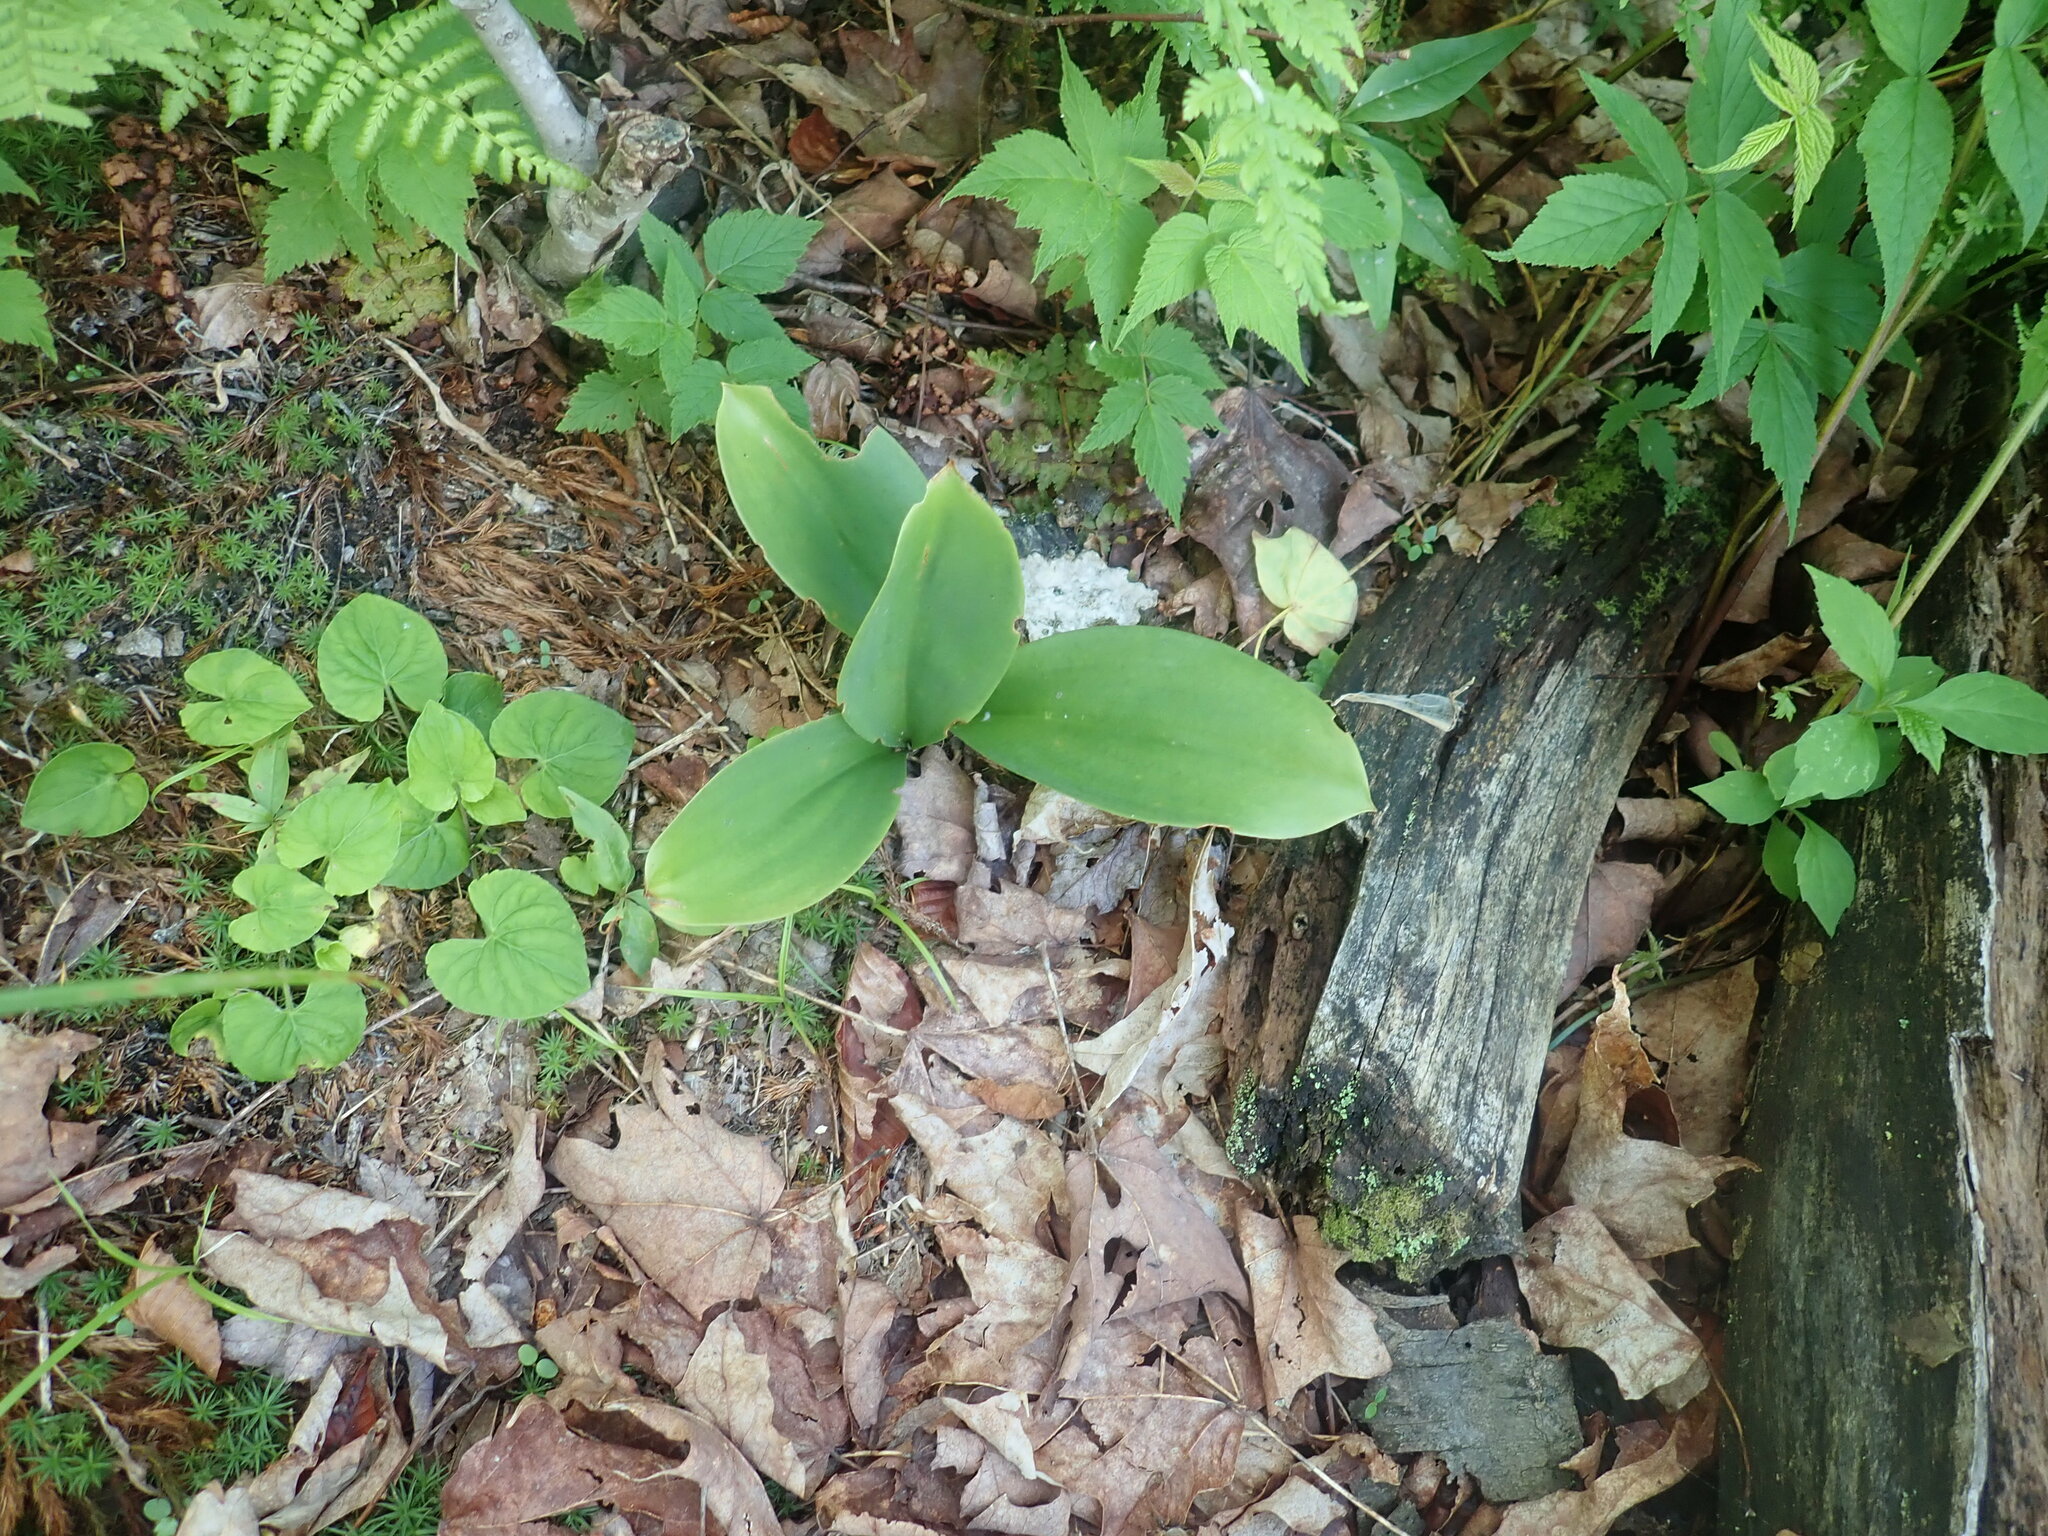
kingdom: Plantae
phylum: Tracheophyta
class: Liliopsida
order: Liliales
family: Liliaceae
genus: Clintonia
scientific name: Clintonia borealis
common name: Yellow clintonia
